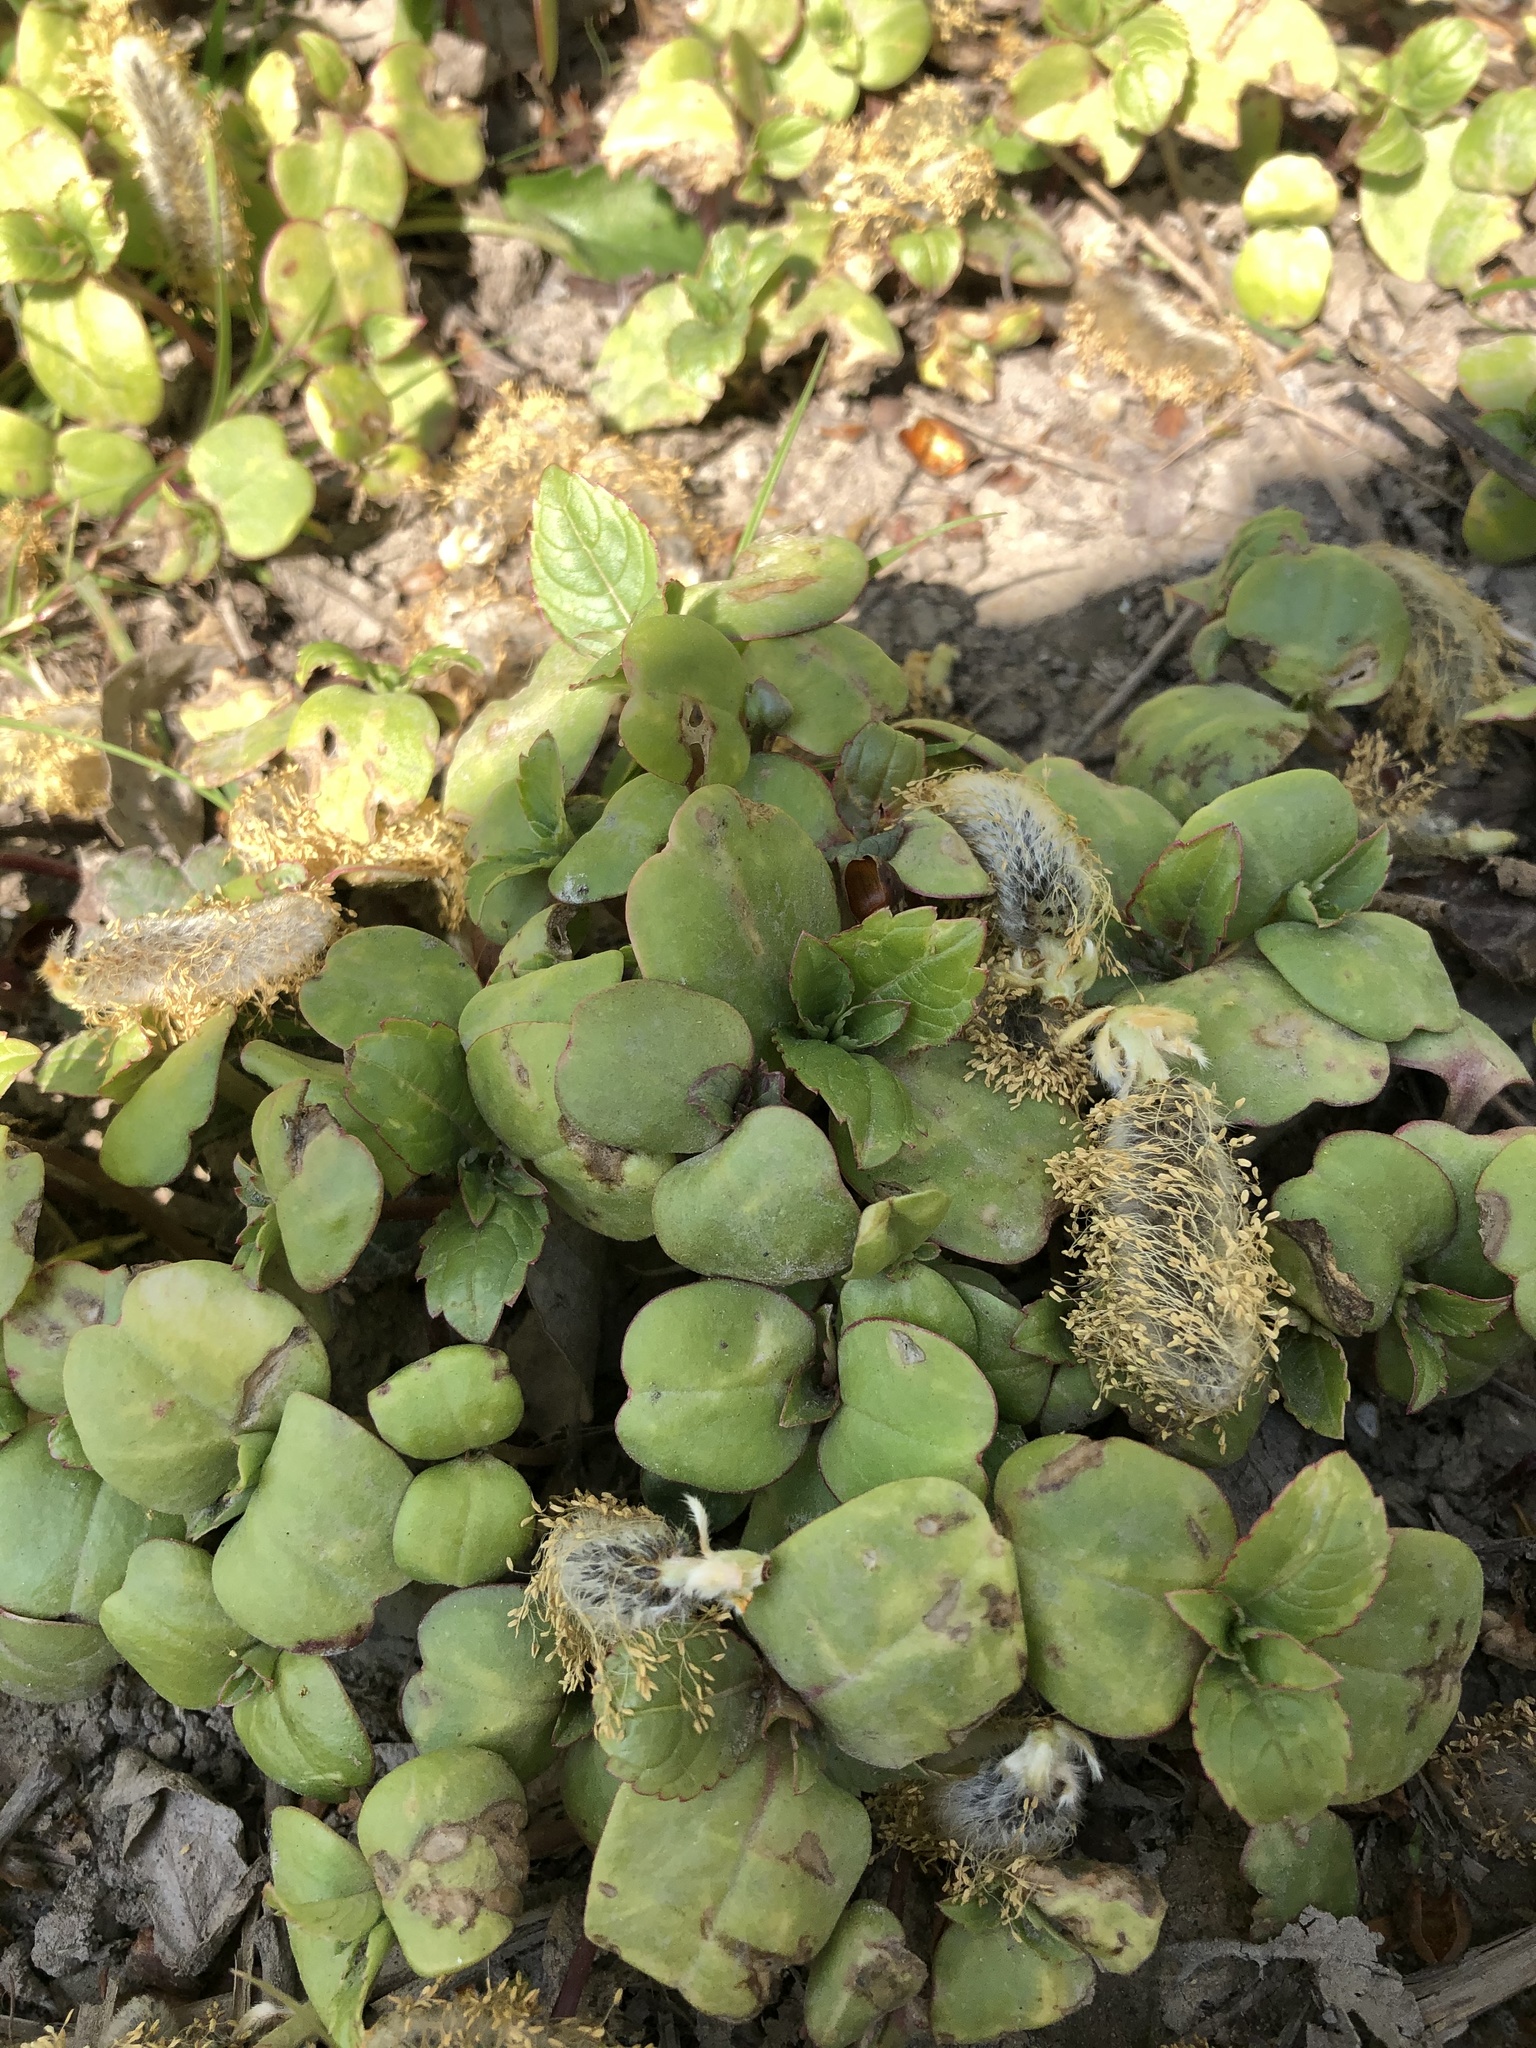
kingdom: Plantae
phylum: Tracheophyta
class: Magnoliopsida
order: Ericales
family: Balsaminaceae
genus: Impatiens
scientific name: Impatiens glandulifera
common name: Himalayan balsam
